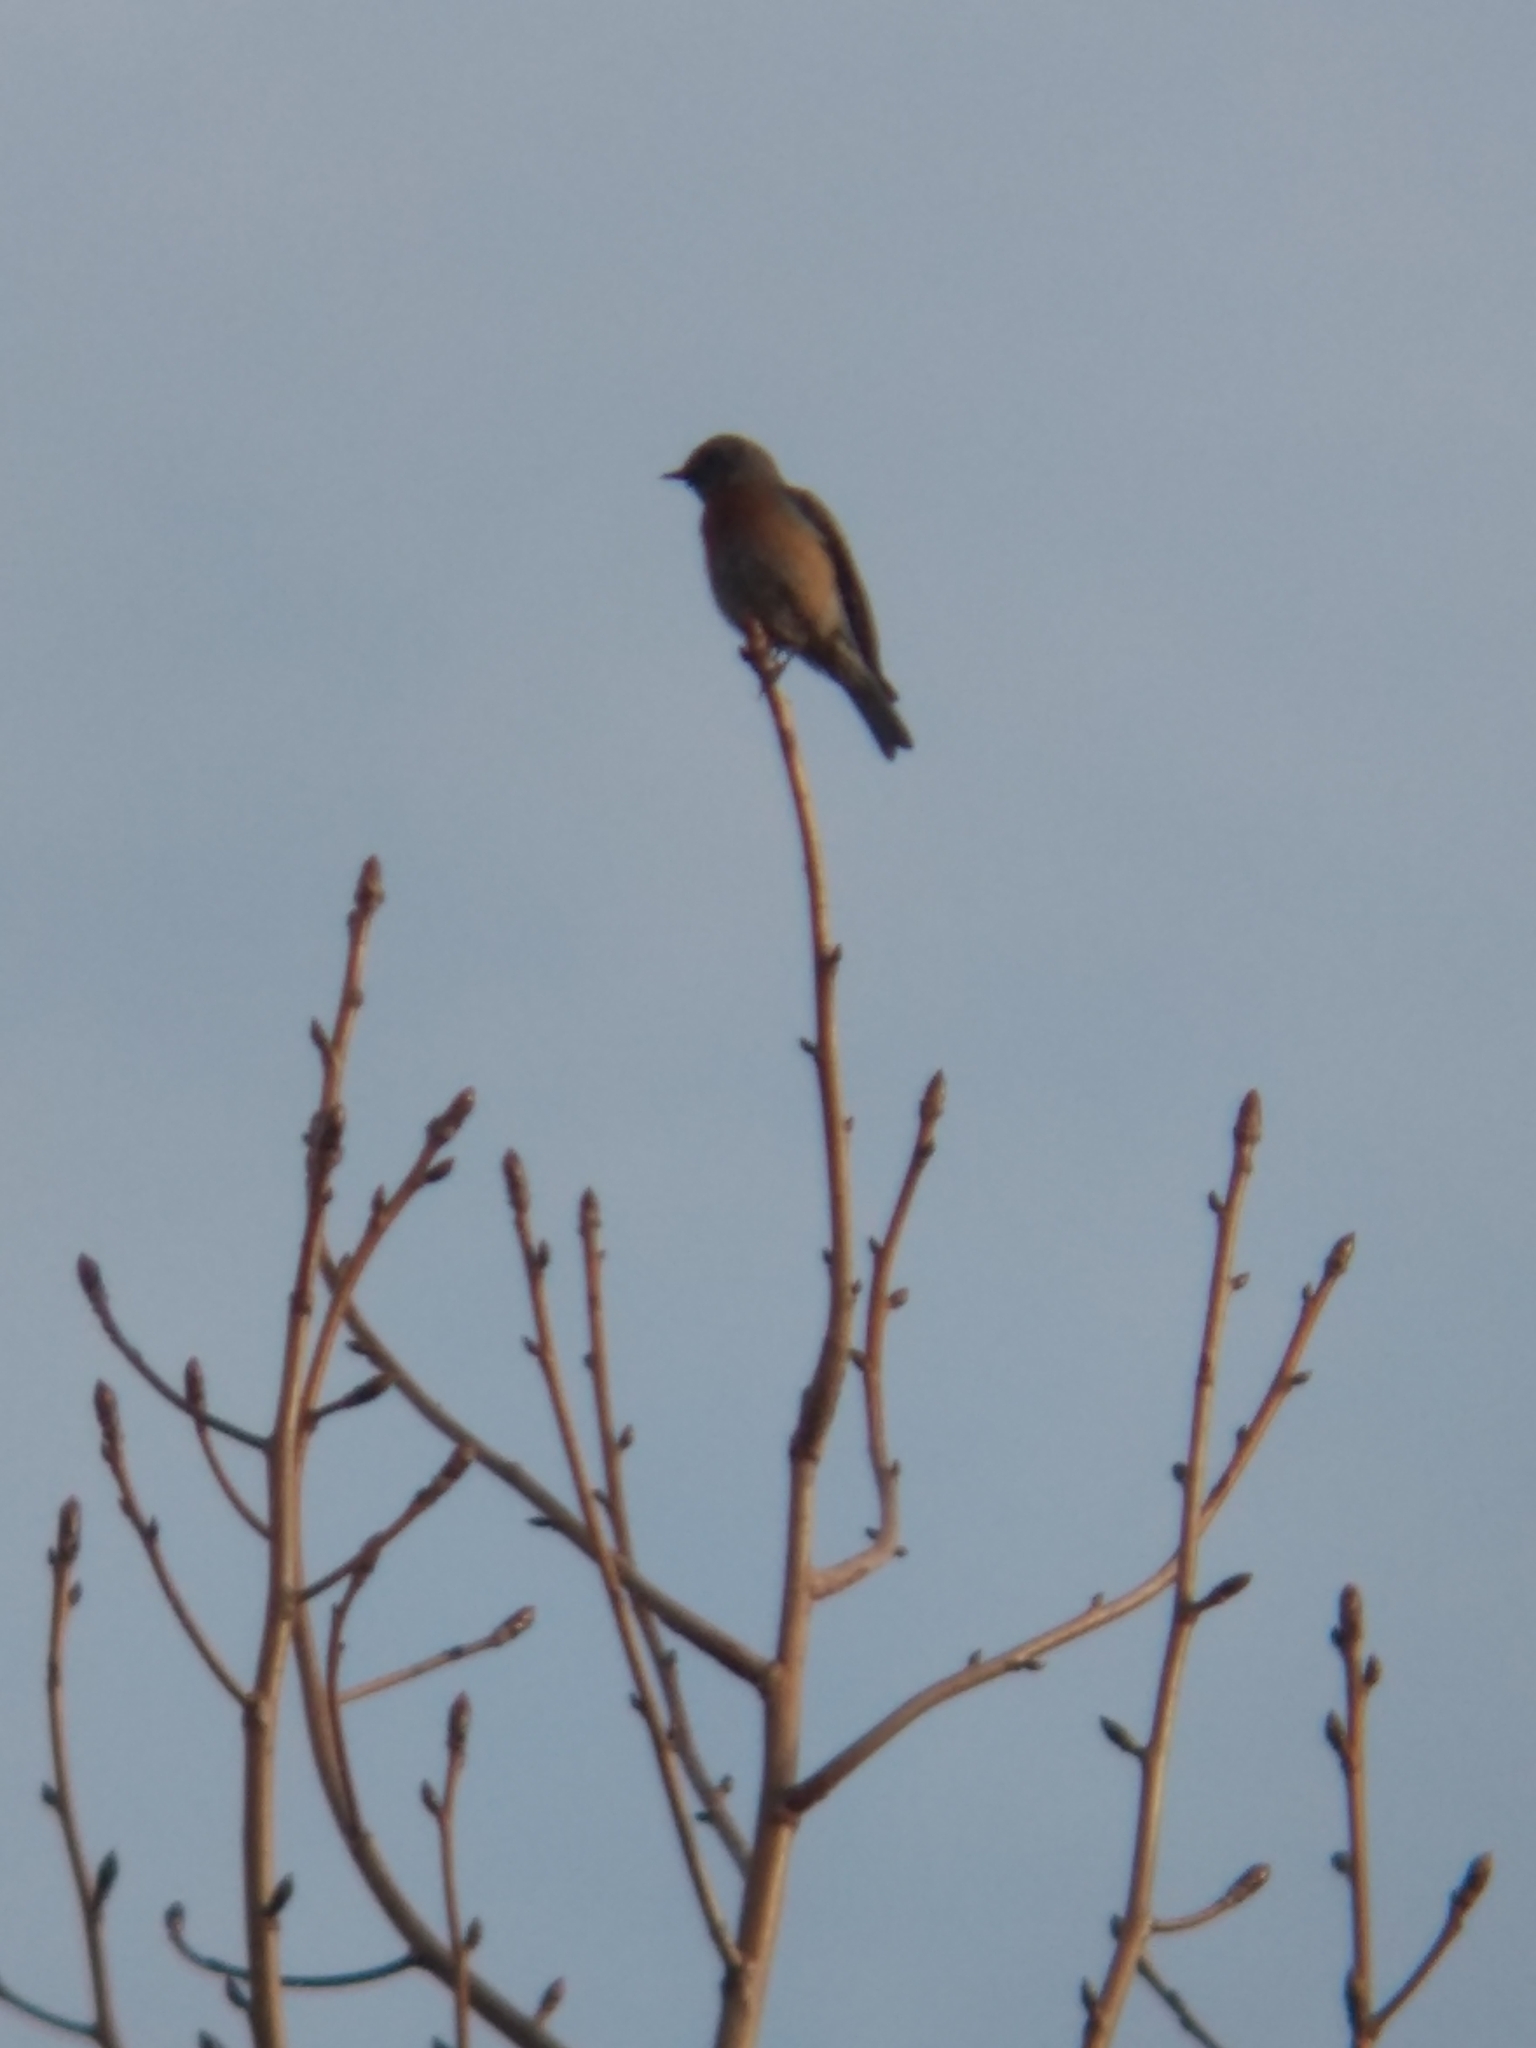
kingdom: Animalia
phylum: Chordata
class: Aves
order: Passeriformes
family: Turdidae
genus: Sialia
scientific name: Sialia mexicana
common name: Western bluebird
